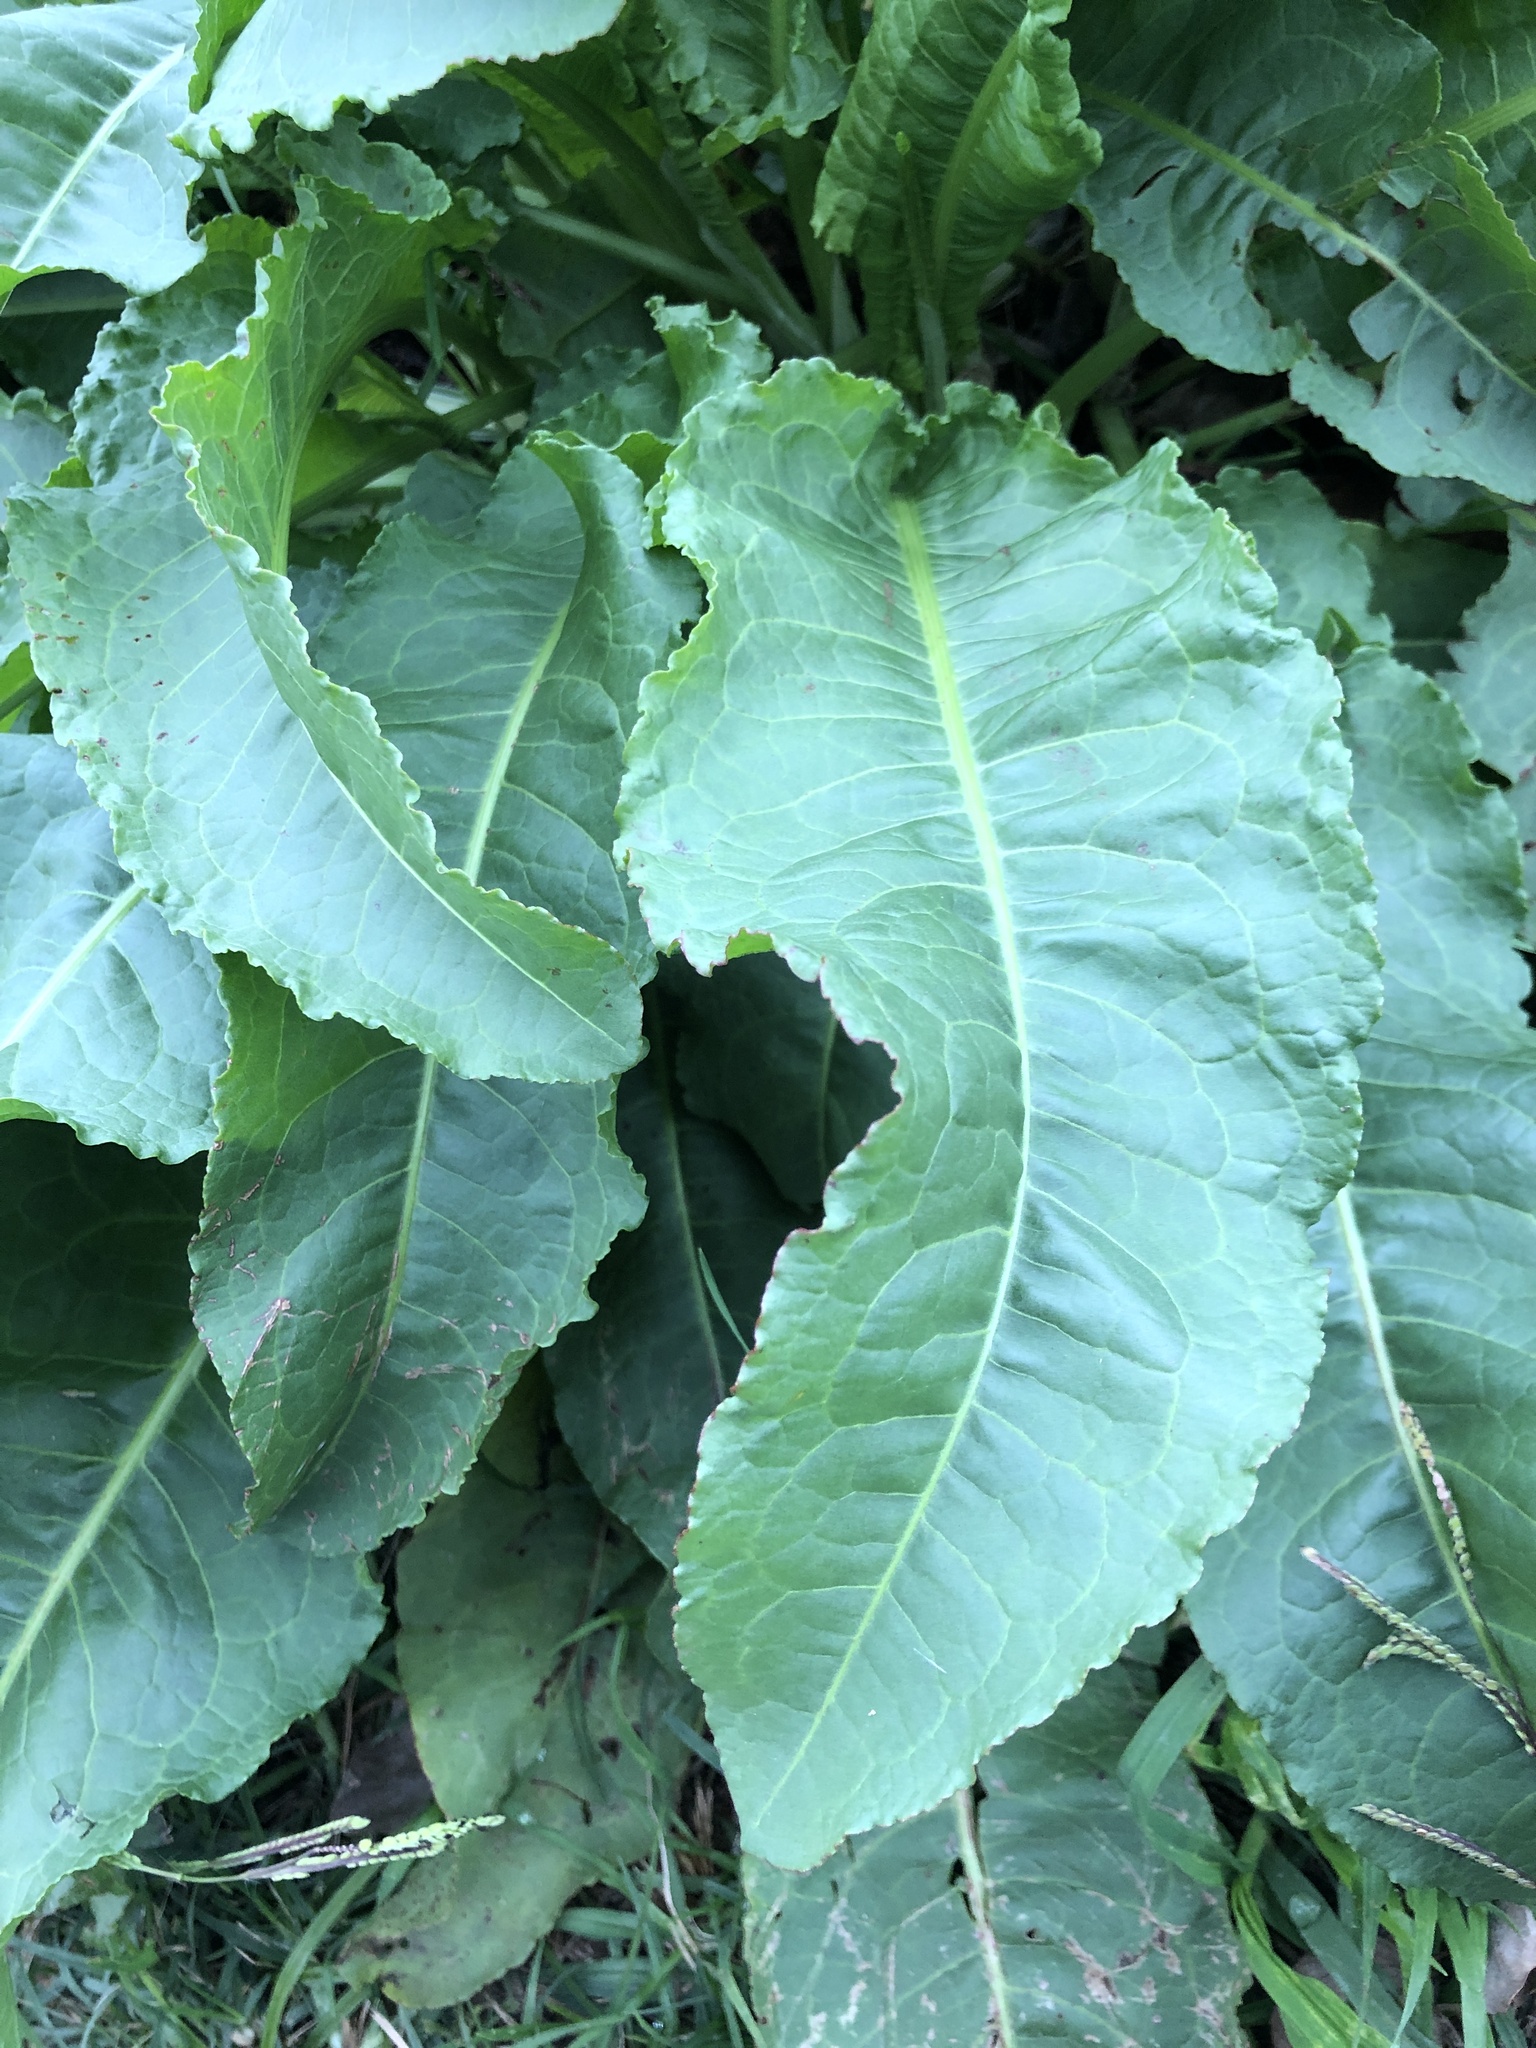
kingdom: Plantae
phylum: Tracheophyta
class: Magnoliopsida
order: Caryophyllales
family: Polygonaceae
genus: Rumex
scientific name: Rumex crispus
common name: Curled dock
